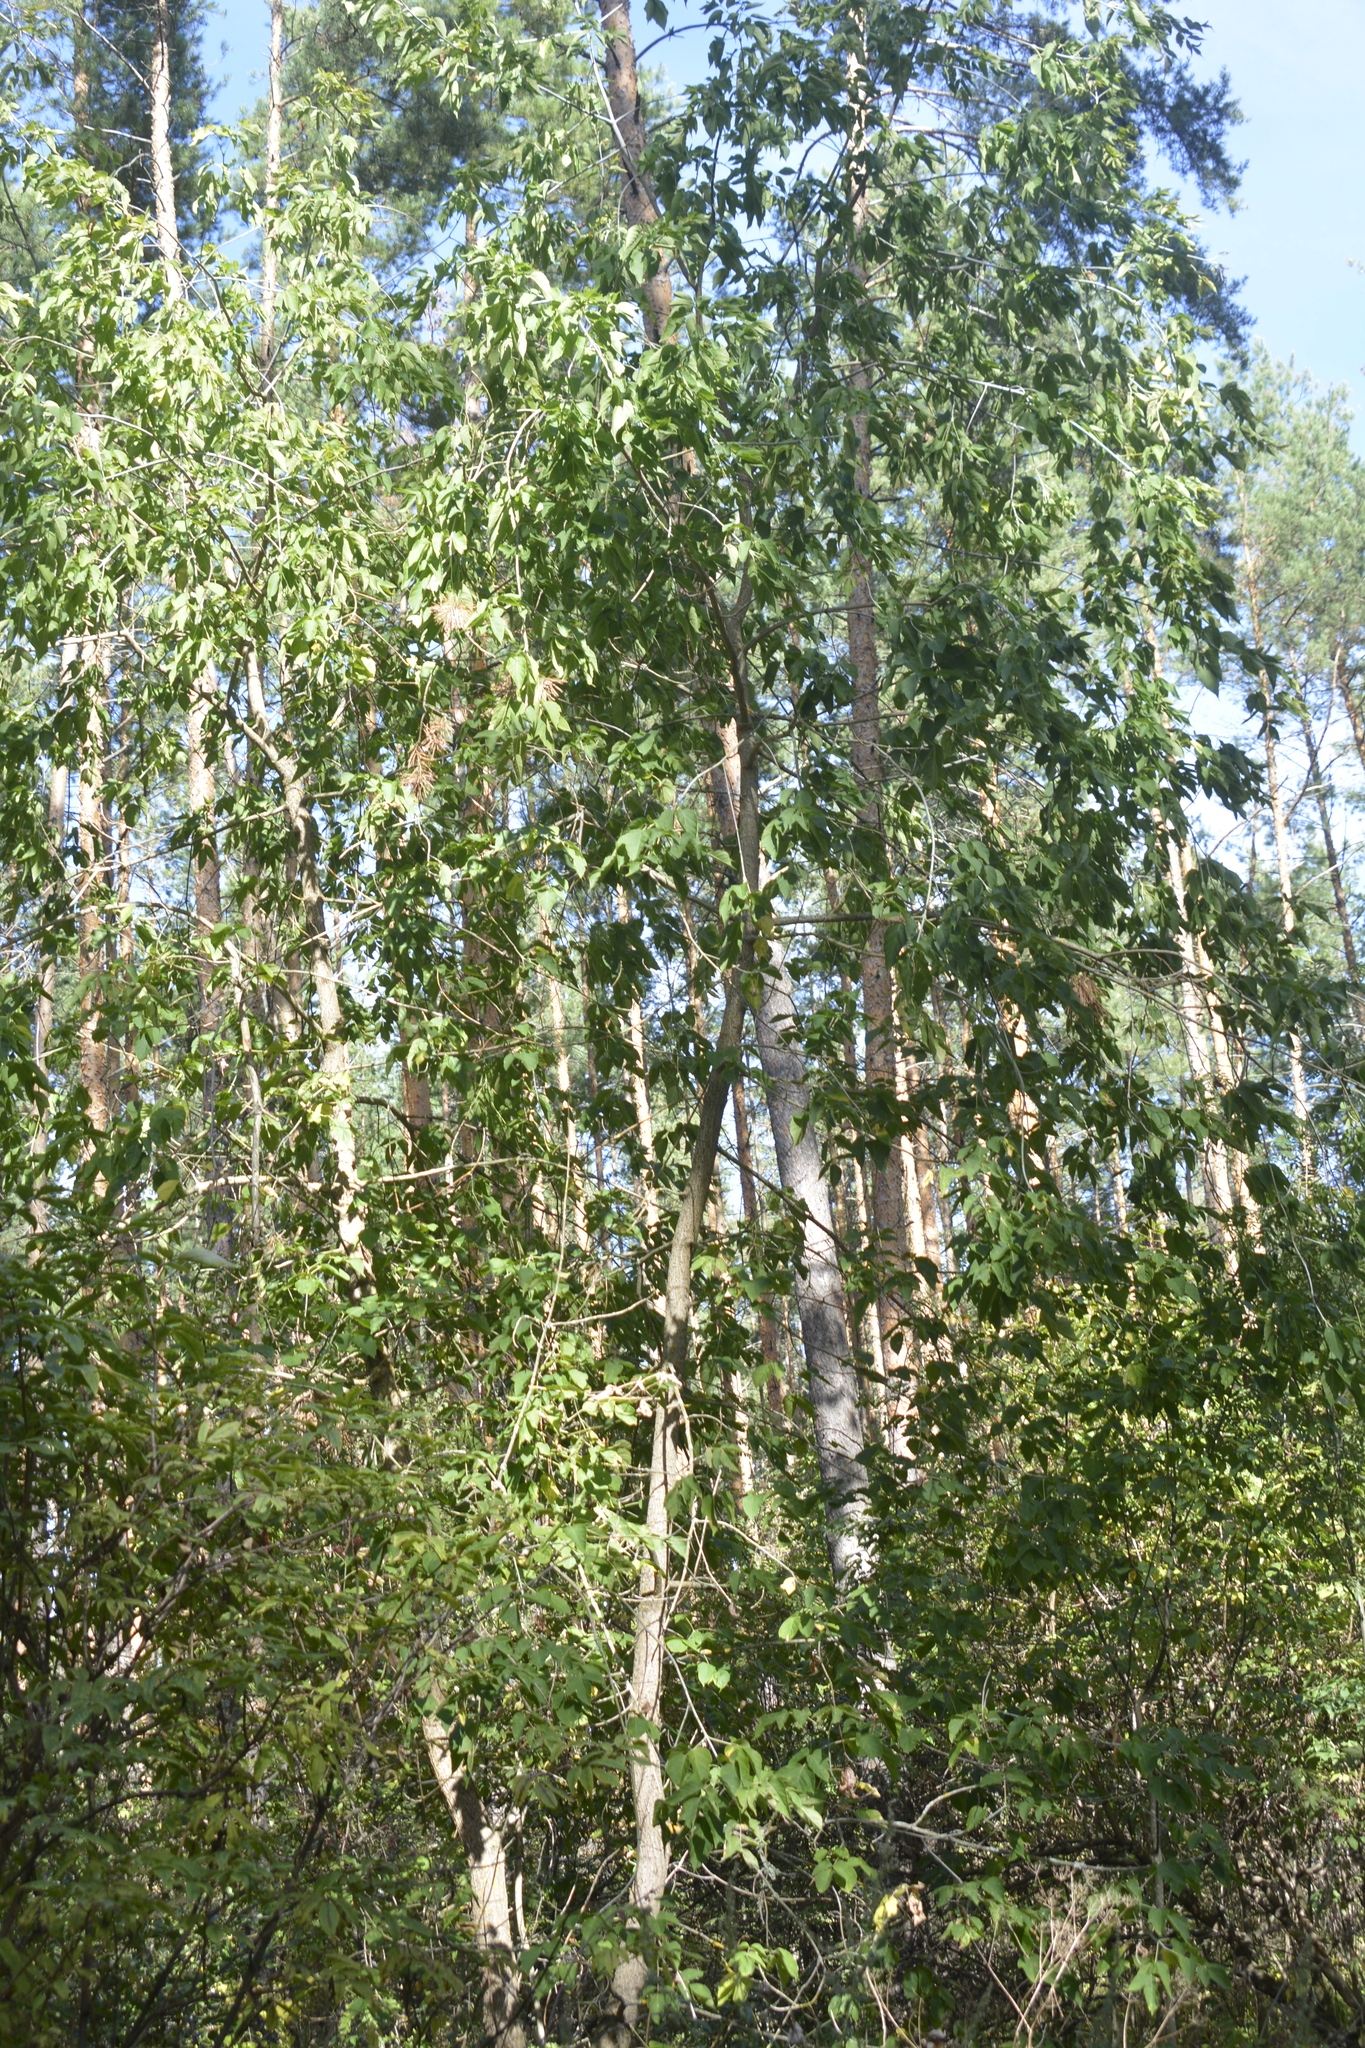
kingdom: Plantae
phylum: Tracheophyta
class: Magnoliopsida
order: Sapindales
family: Sapindaceae
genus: Acer
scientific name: Acer negundo
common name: Ashleaf maple
